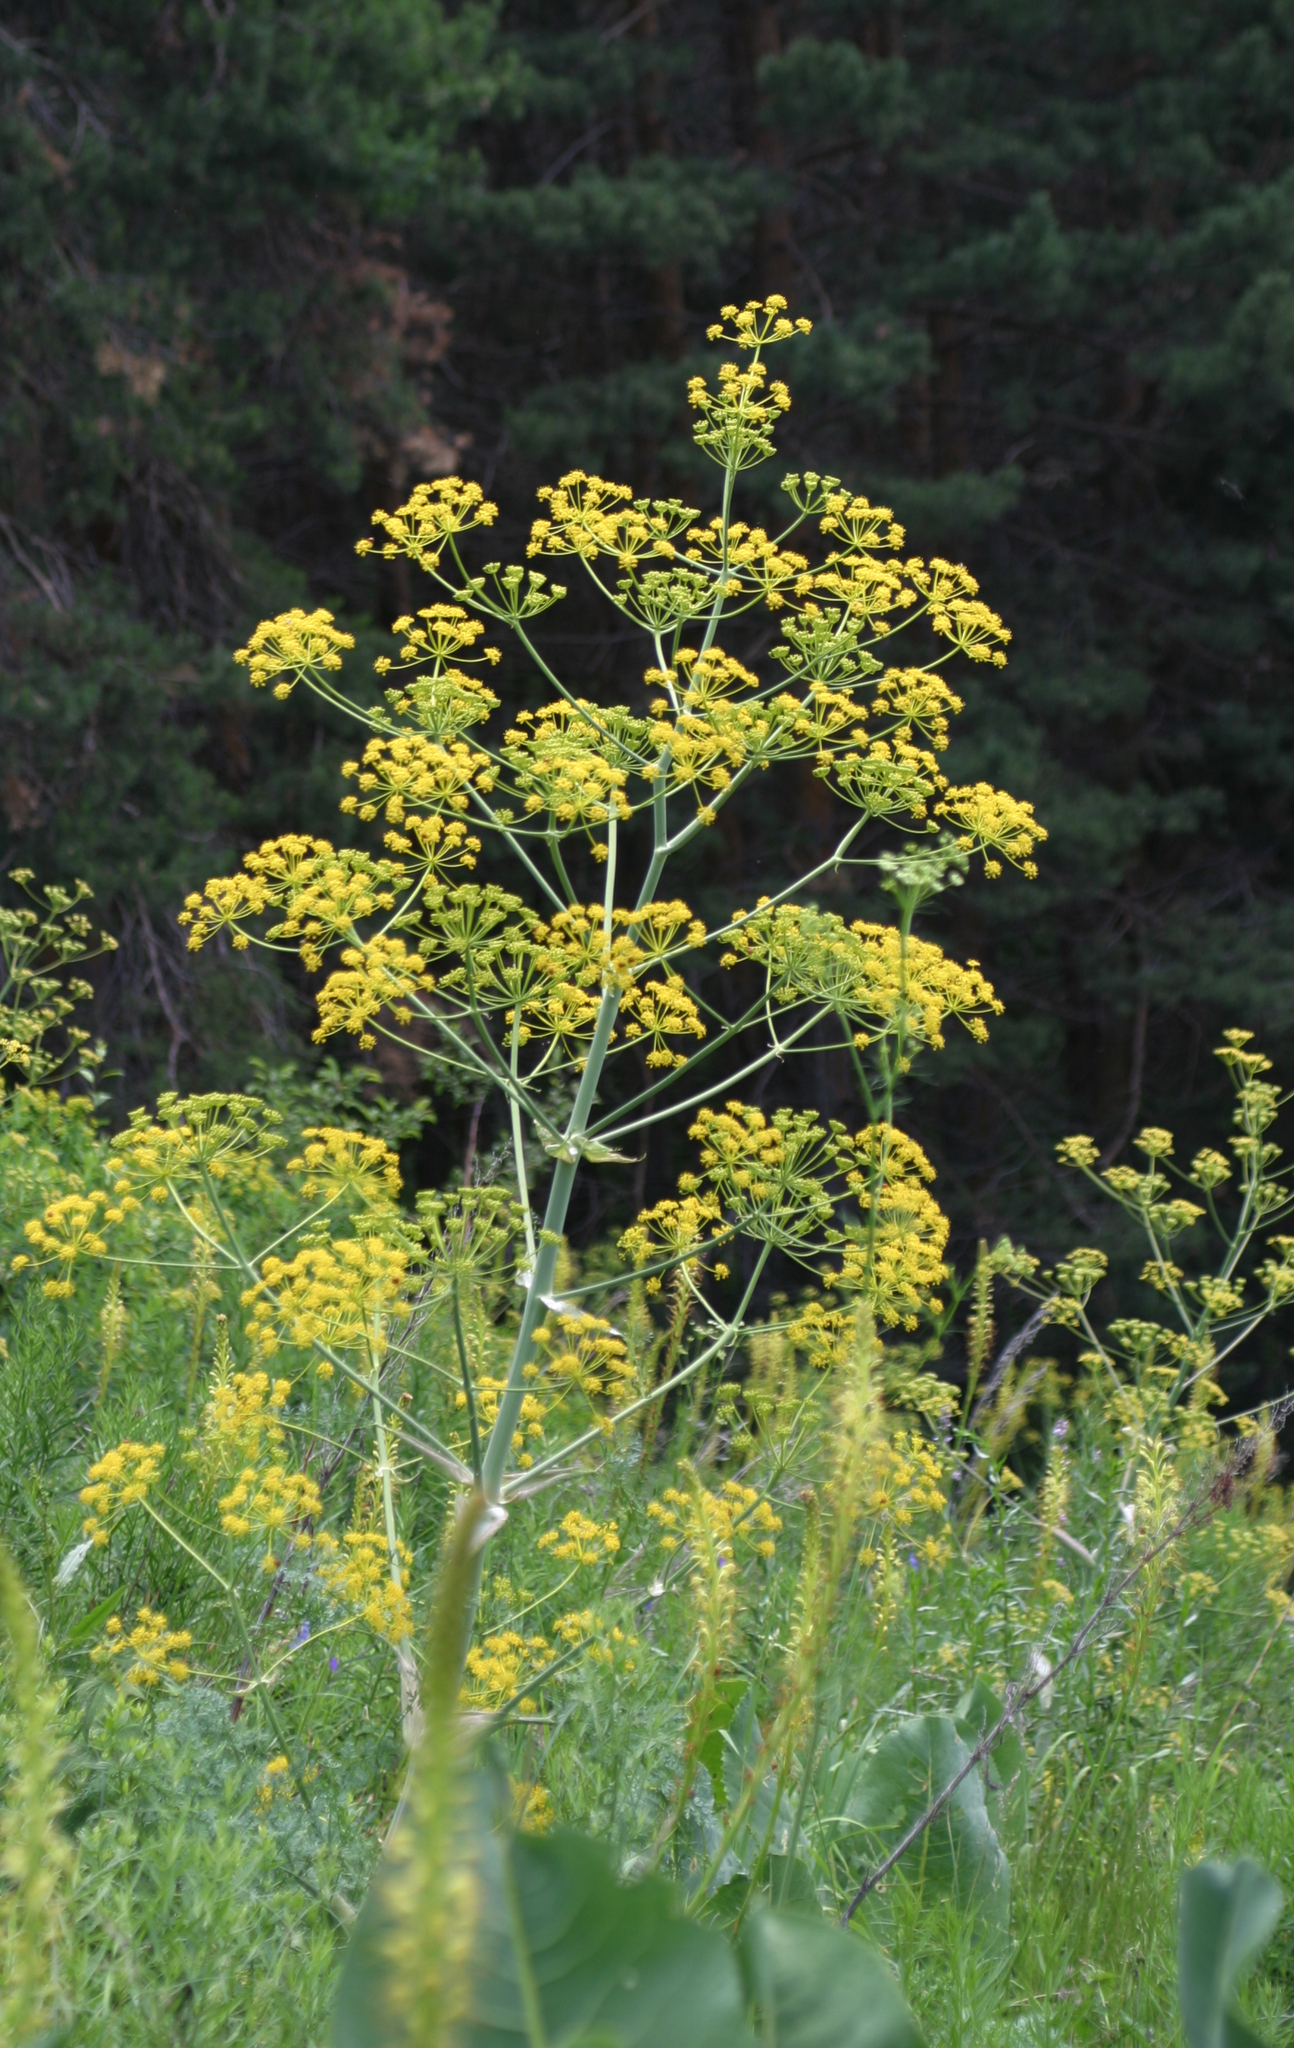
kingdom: Plantae
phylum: Tracheophyta
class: Magnoliopsida
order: Apiales
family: Apiaceae
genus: Ferula
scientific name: Ferula kelleri
